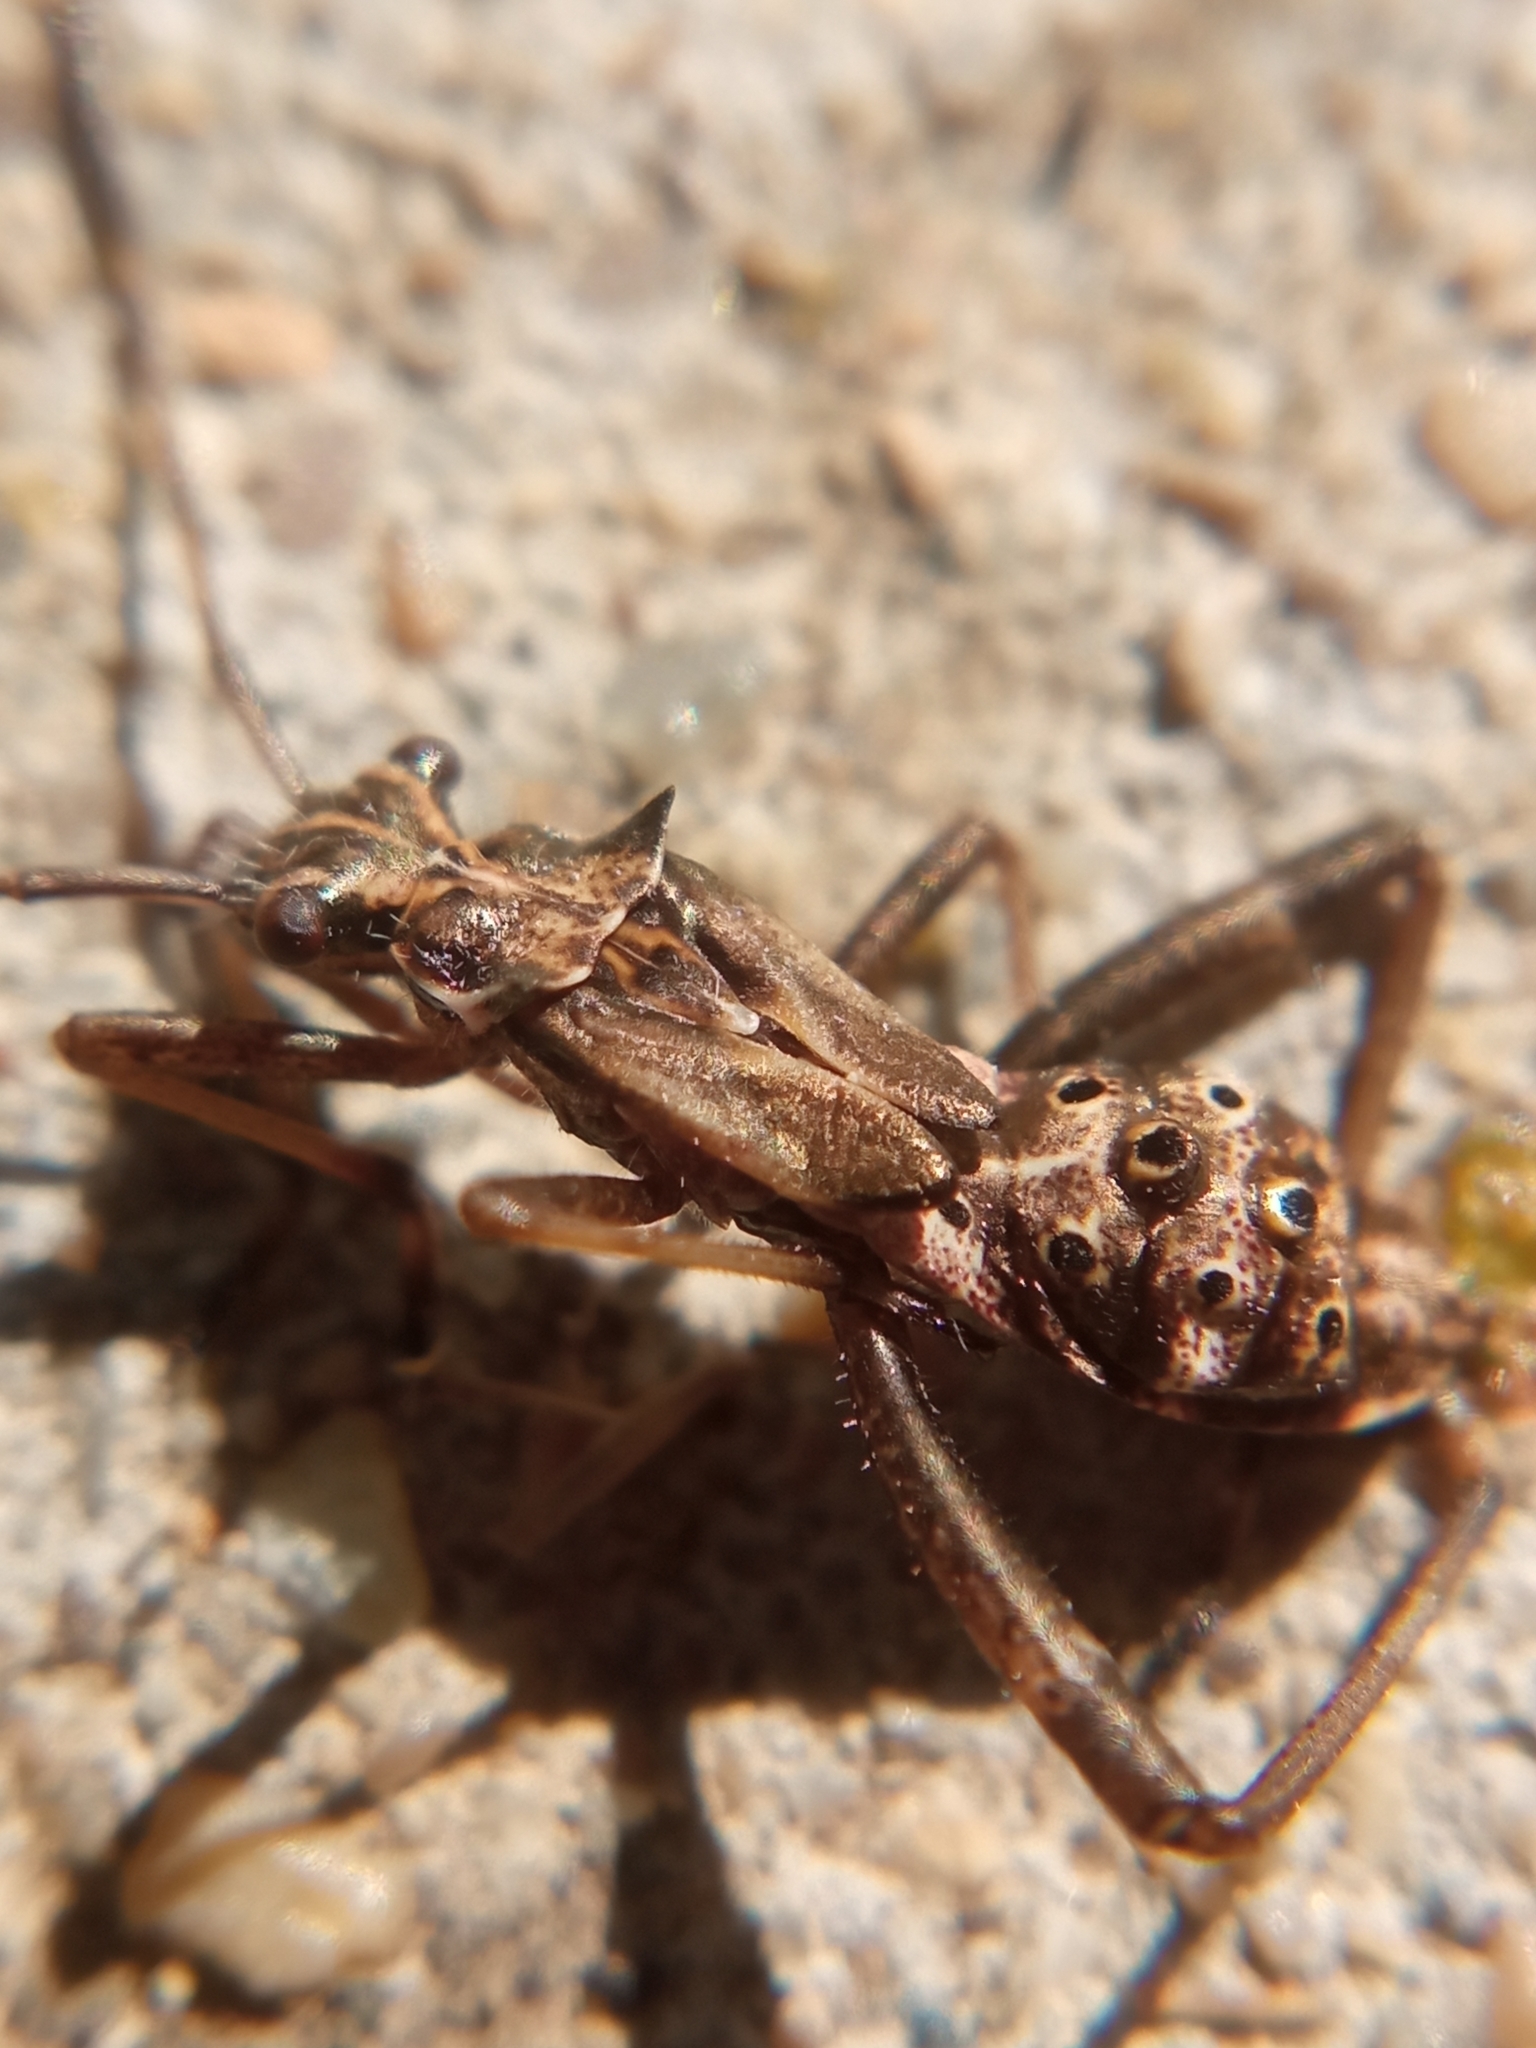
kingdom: Animalia
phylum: Arthropoda
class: Insecta
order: Hemiptera
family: Alydidae
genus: Camptopus
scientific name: Camptopus lateralis
